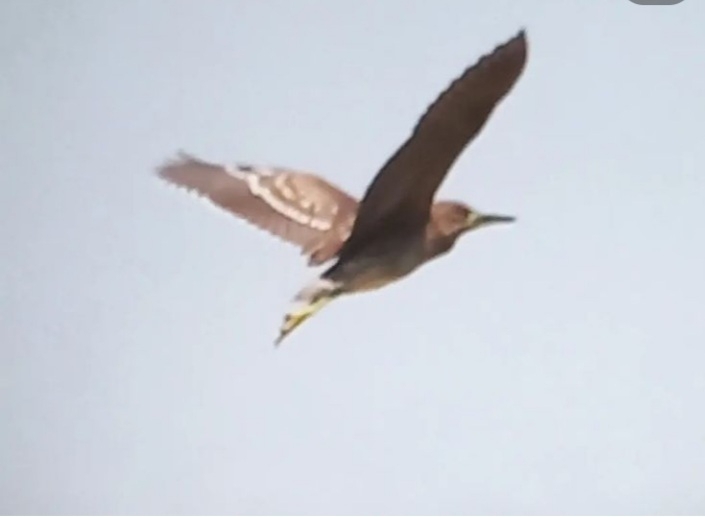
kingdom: Animalia
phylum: Chordata
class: Aves
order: Pelecaniformes
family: Ardeidae
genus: Nycticorax
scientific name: Nycticorax nycticorax
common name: Black-crowned night heron
